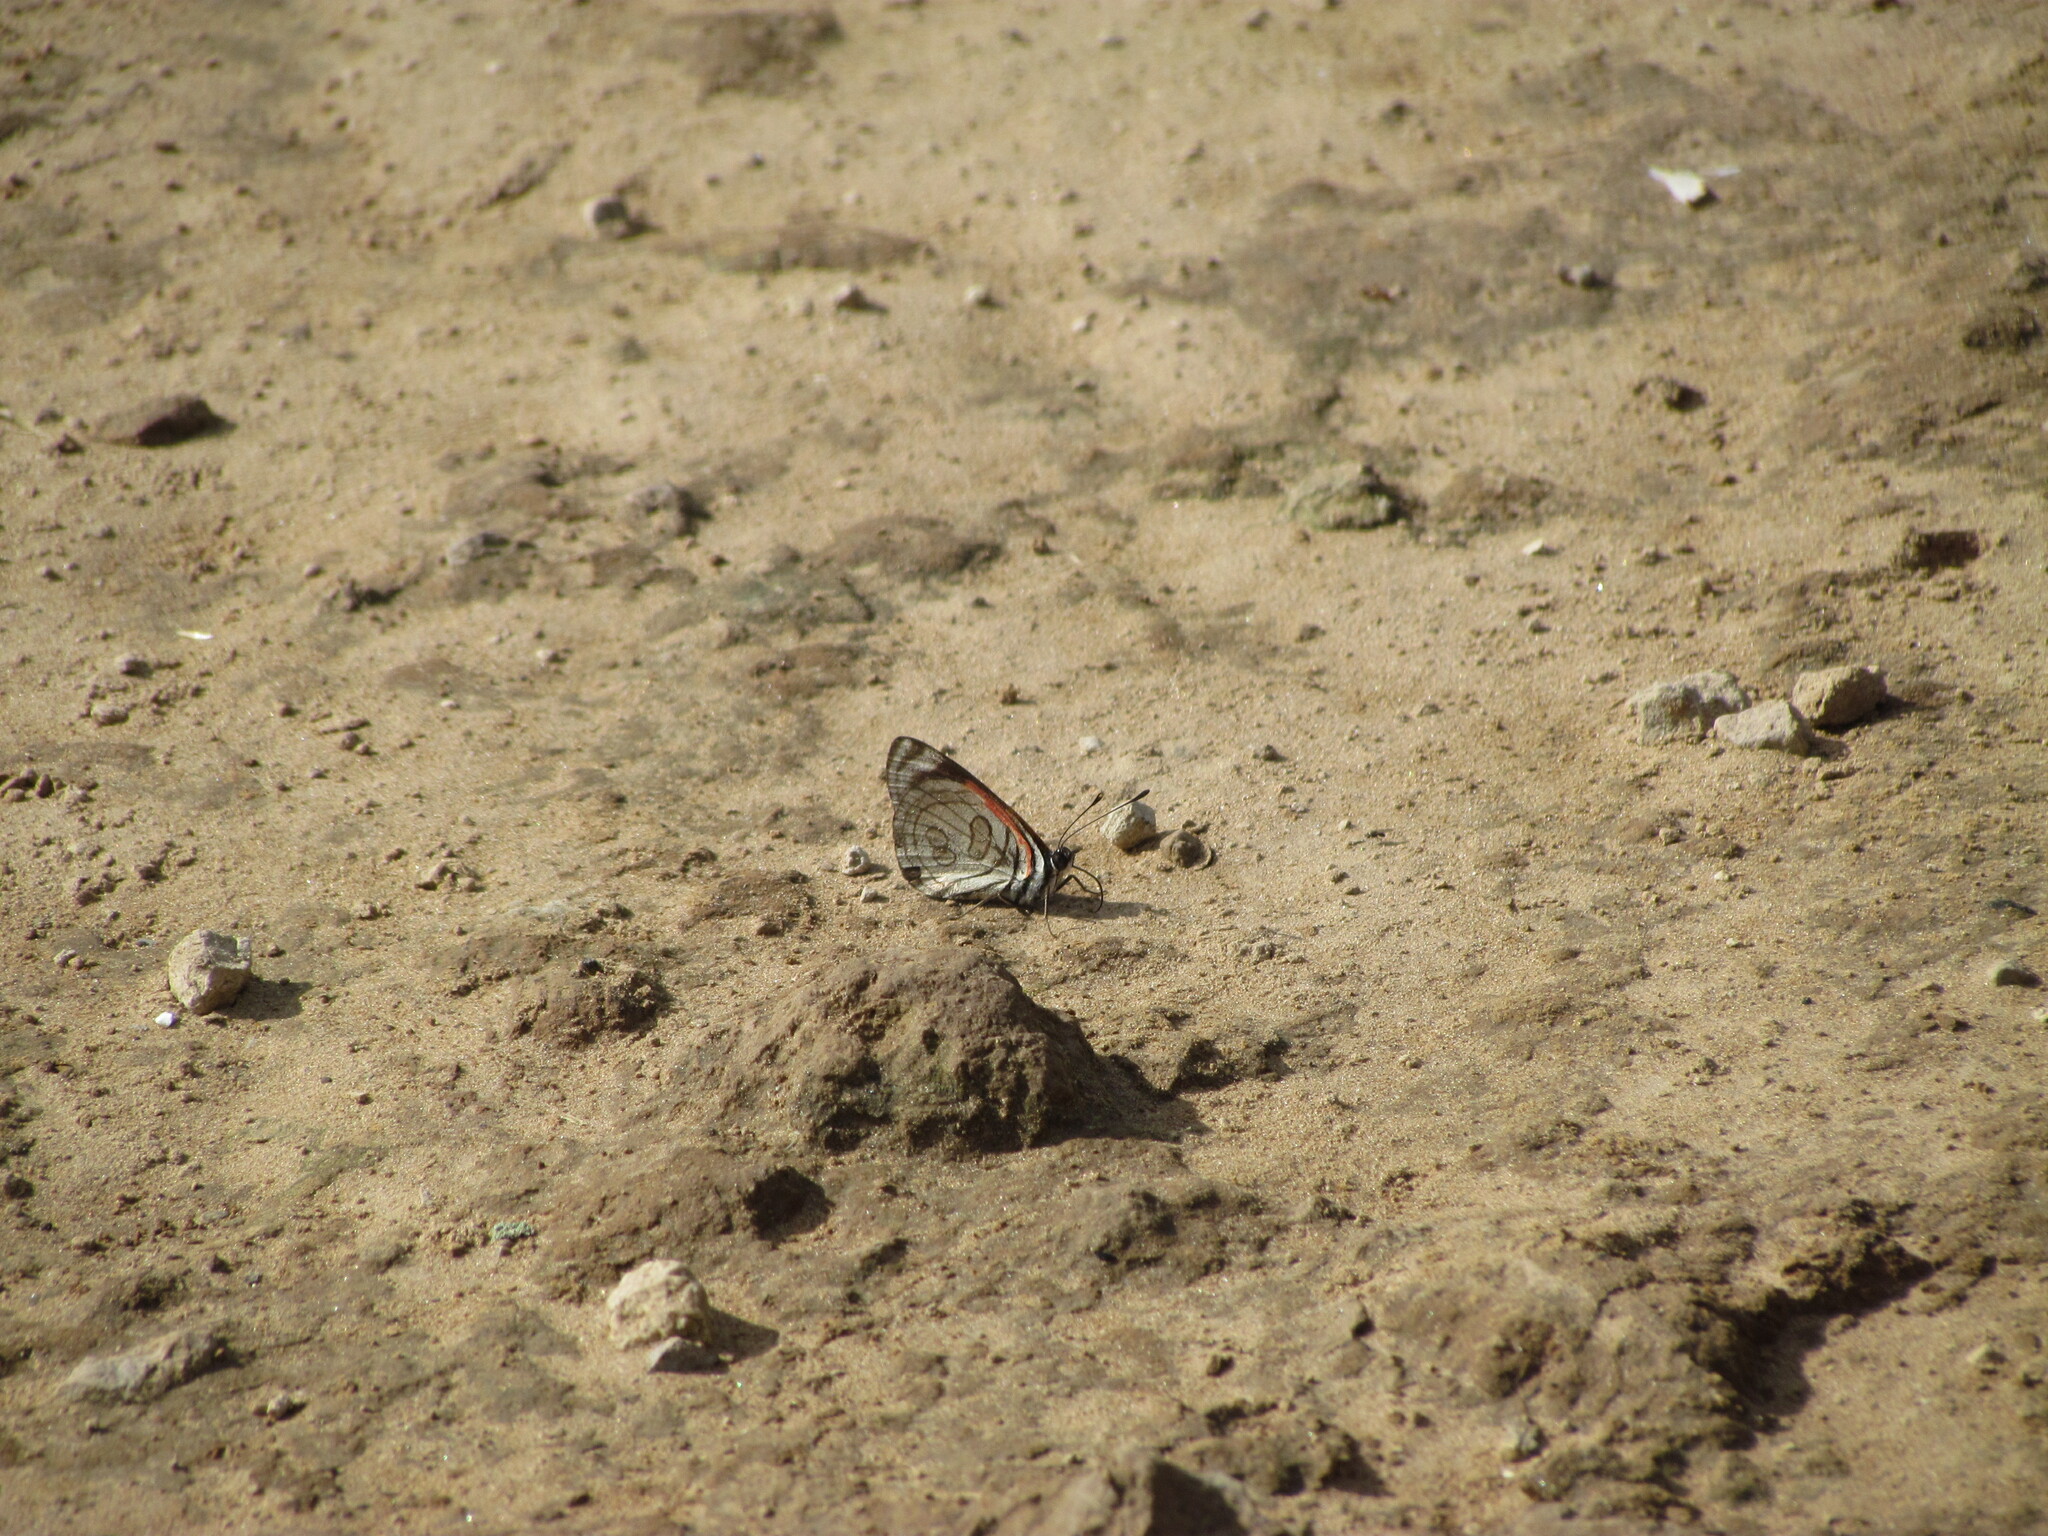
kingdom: Animalia
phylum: Arthropoda
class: Insecta
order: Lepidoptera
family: Nymphalidae
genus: Diaethria
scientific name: Diaethria candrena
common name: Number eighty
